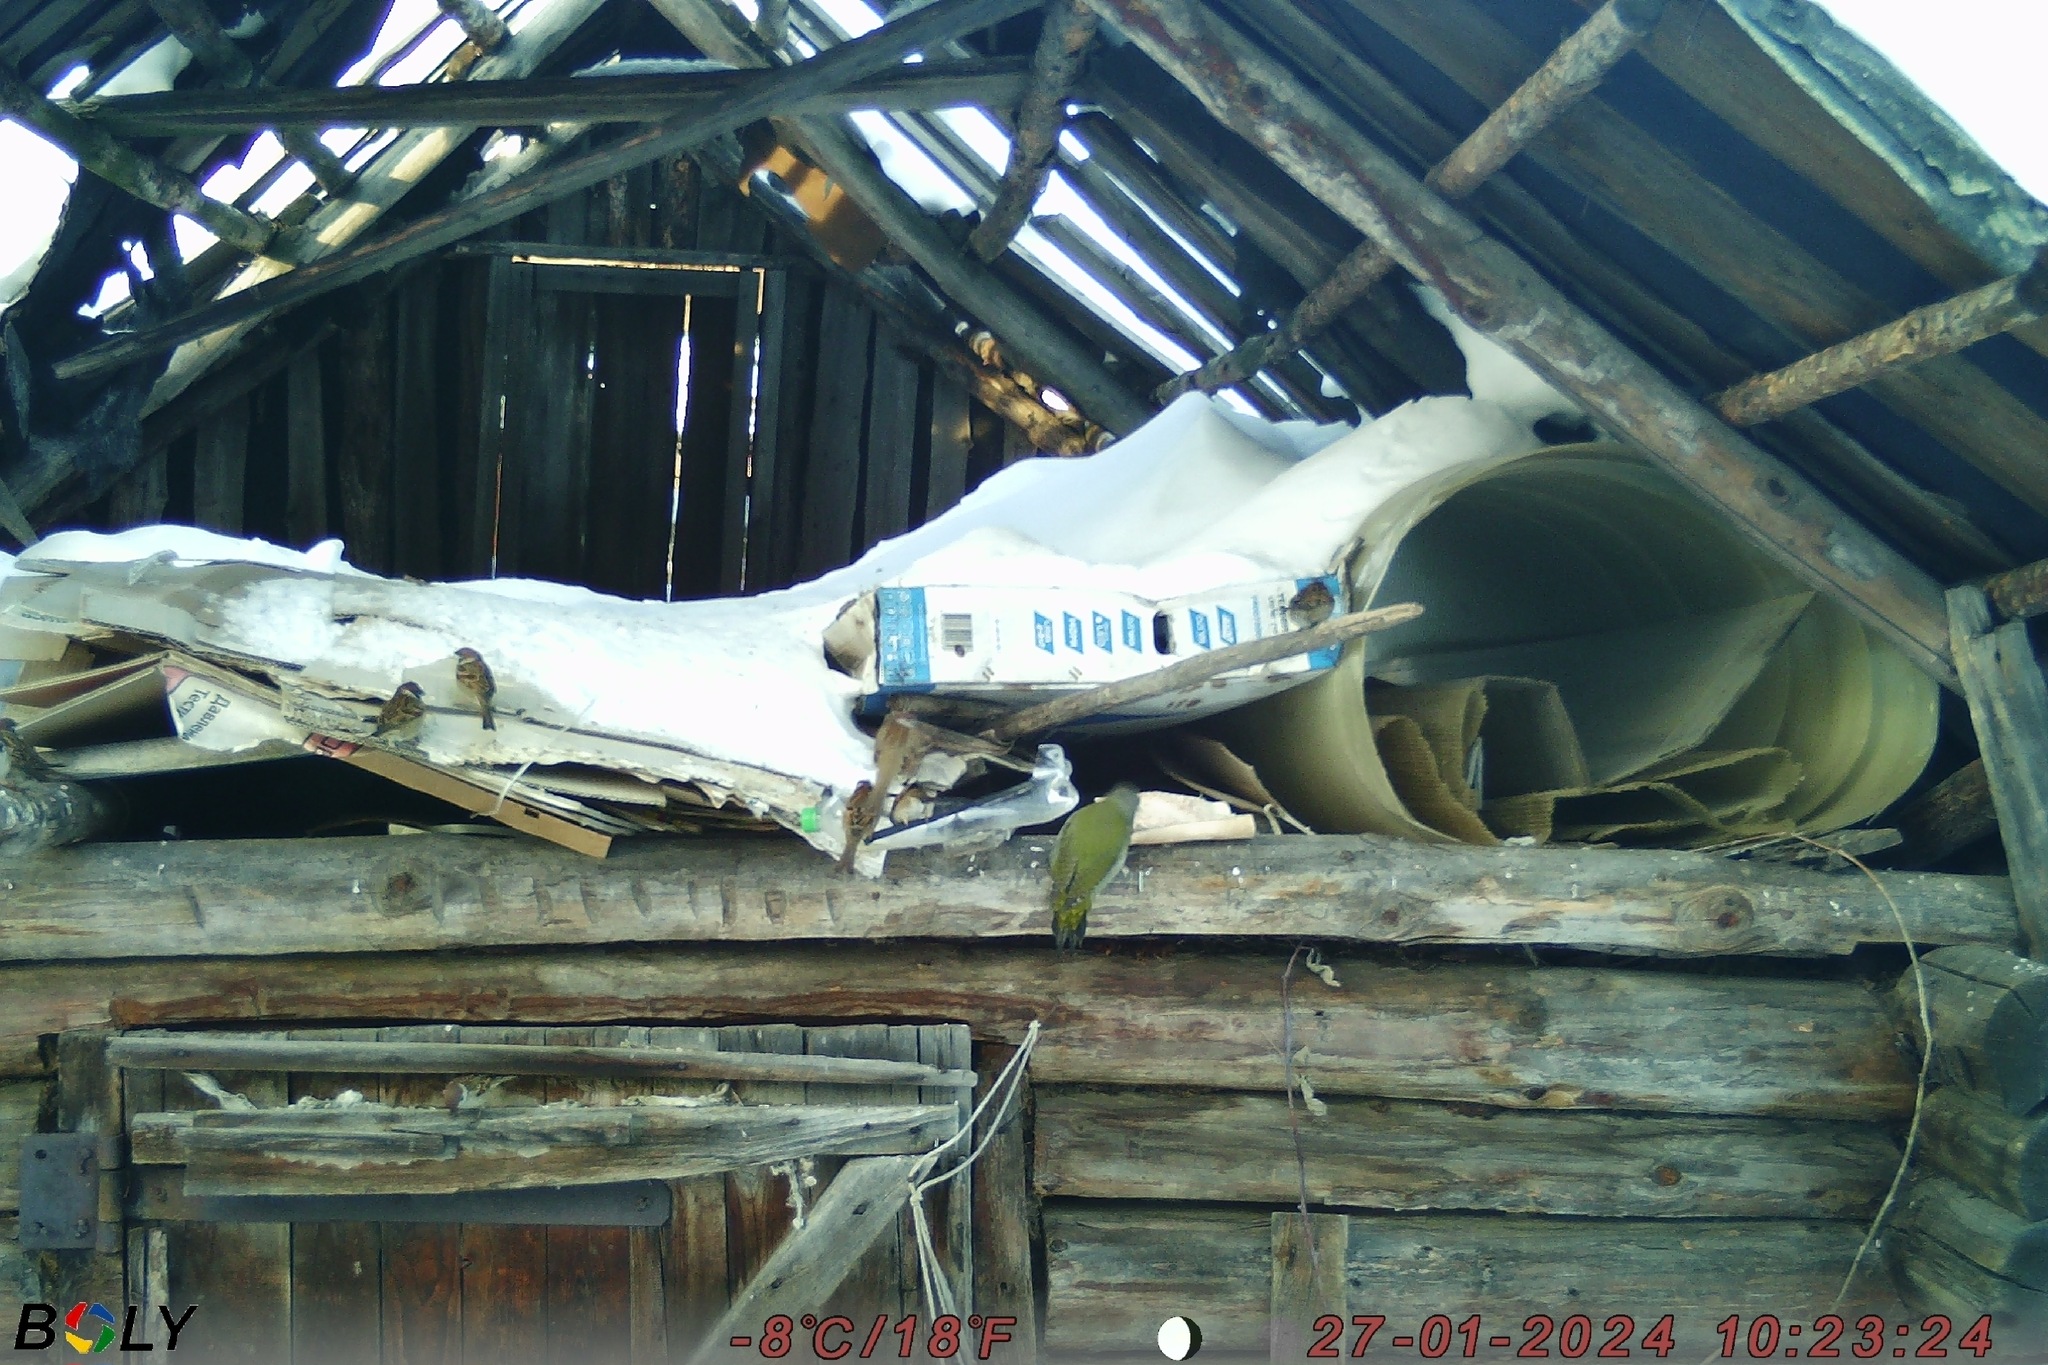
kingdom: Animalia
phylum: Chordata
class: Aves
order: Piciformes
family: Picidae
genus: Picus
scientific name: Picus canus
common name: Grey-headed woodpecker
